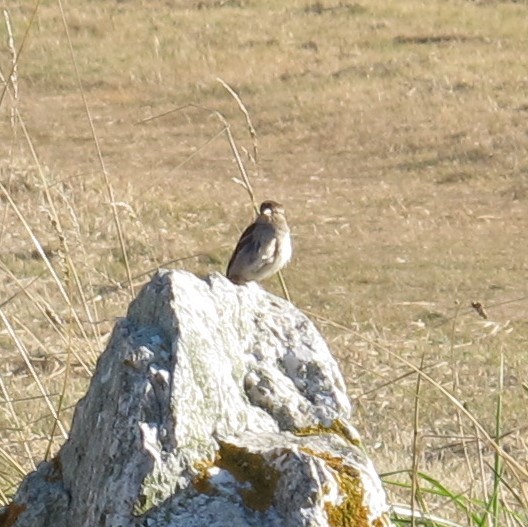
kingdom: Animalia
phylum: Chordata
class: Aves
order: Passeriformes
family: Passeridae
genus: Passer
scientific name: Passer domesticus
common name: House sparrow
